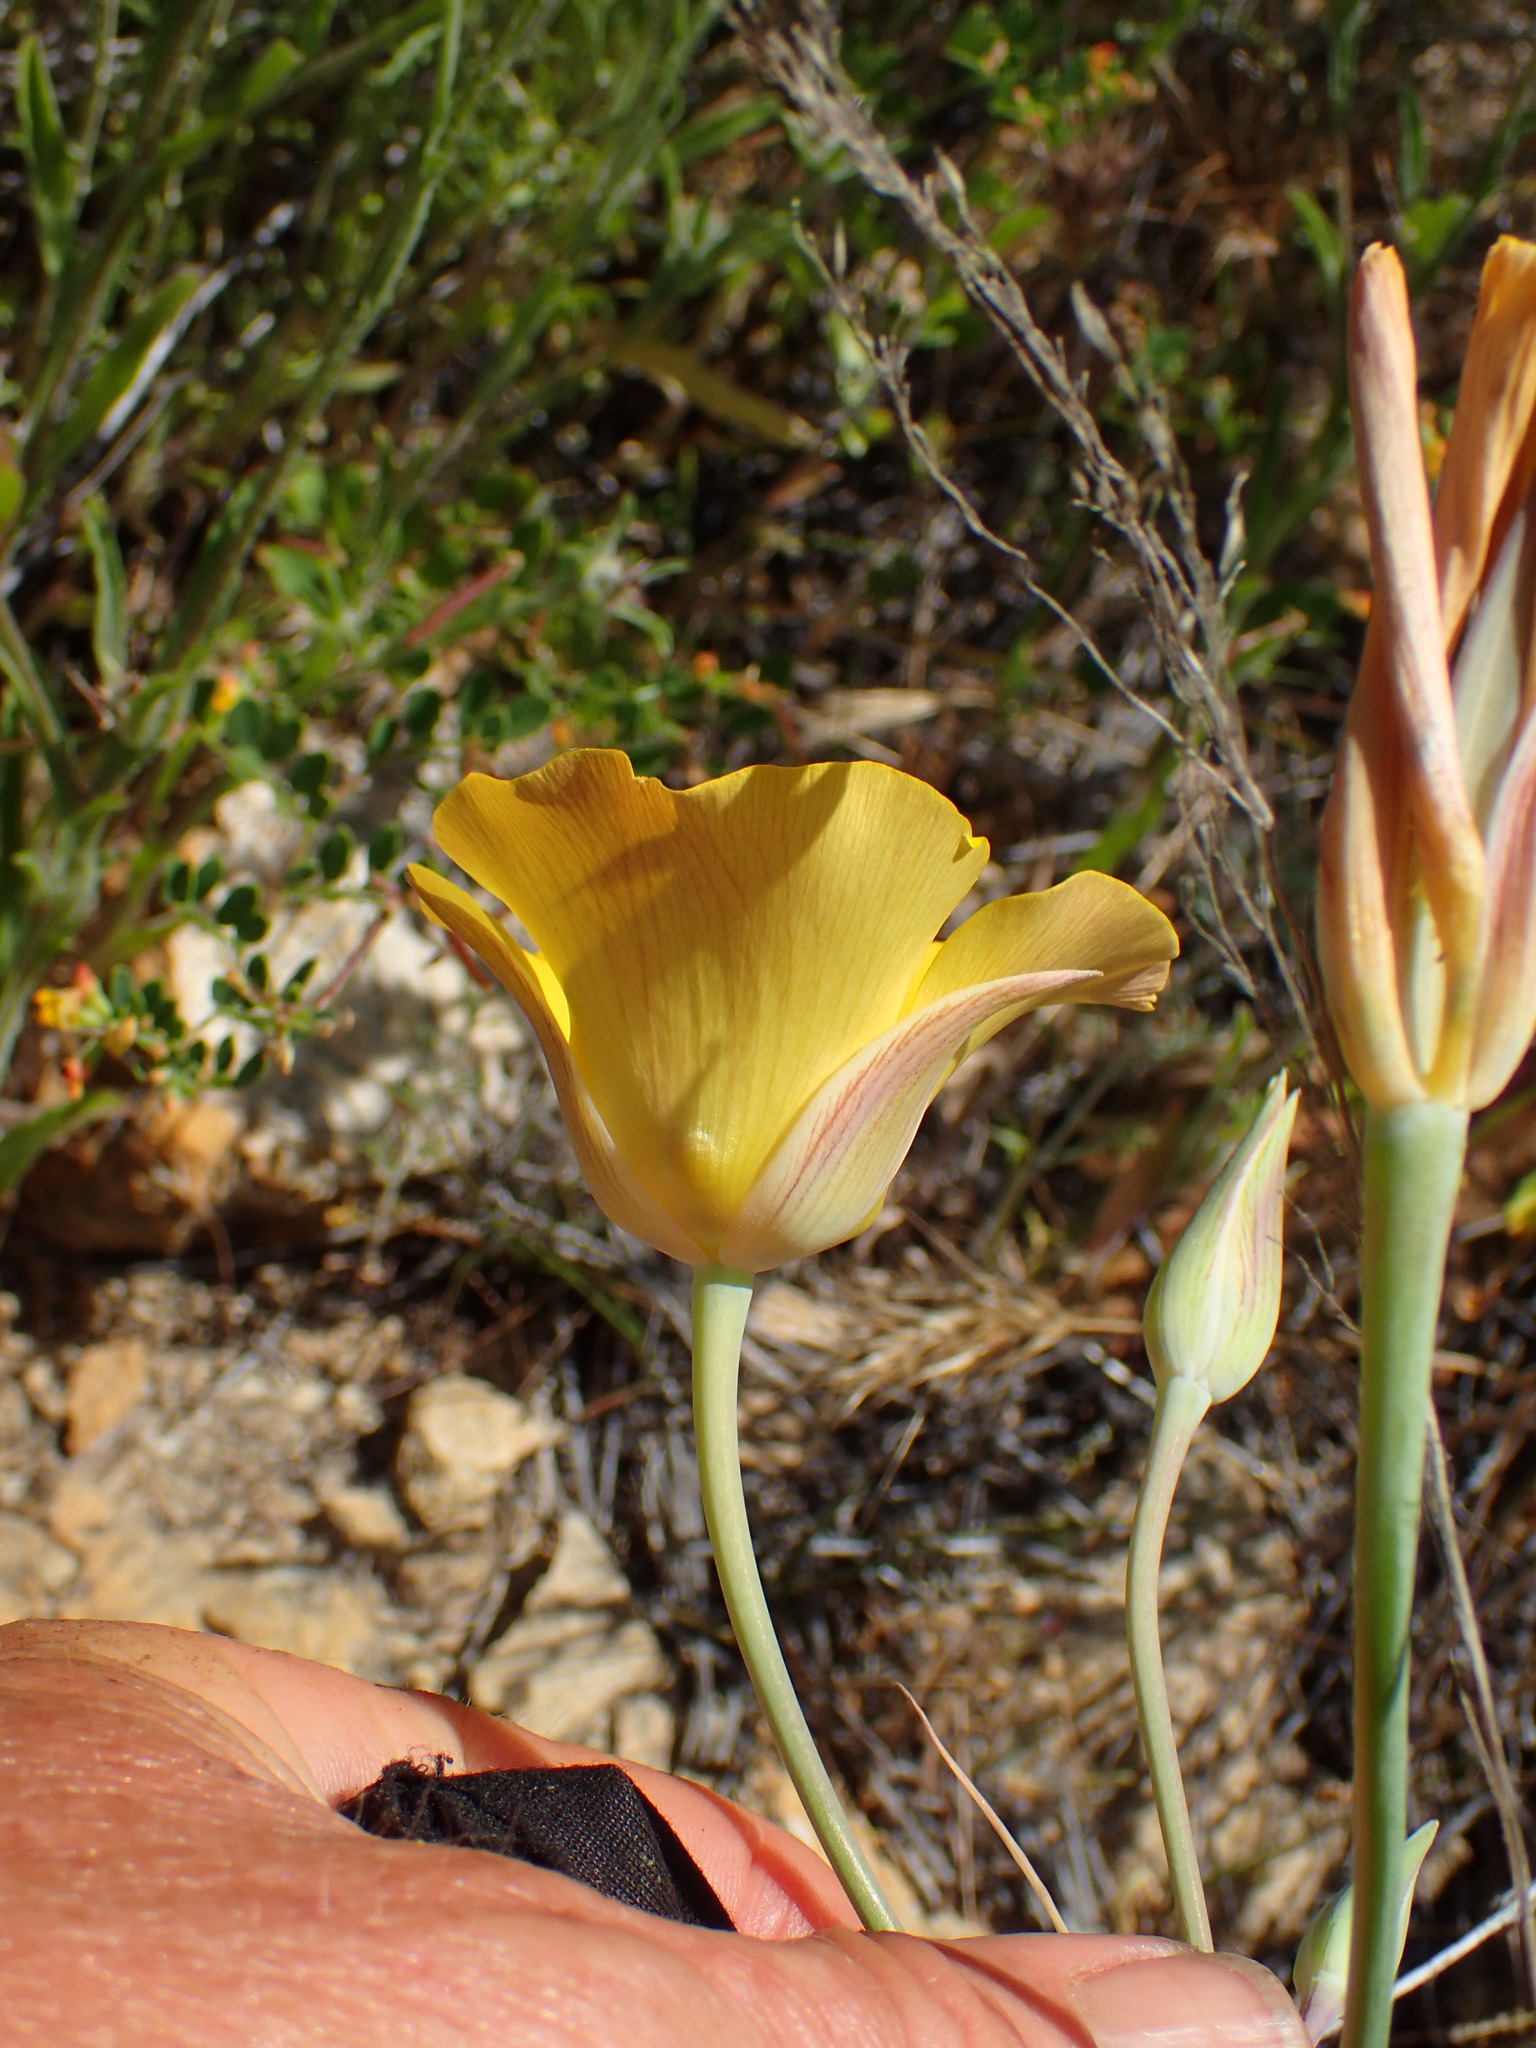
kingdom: Plantae
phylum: Tracheophyta
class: Liliopsida
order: Liliales
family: Liliaceae
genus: Calochortus
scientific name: Calochortus clavatus
